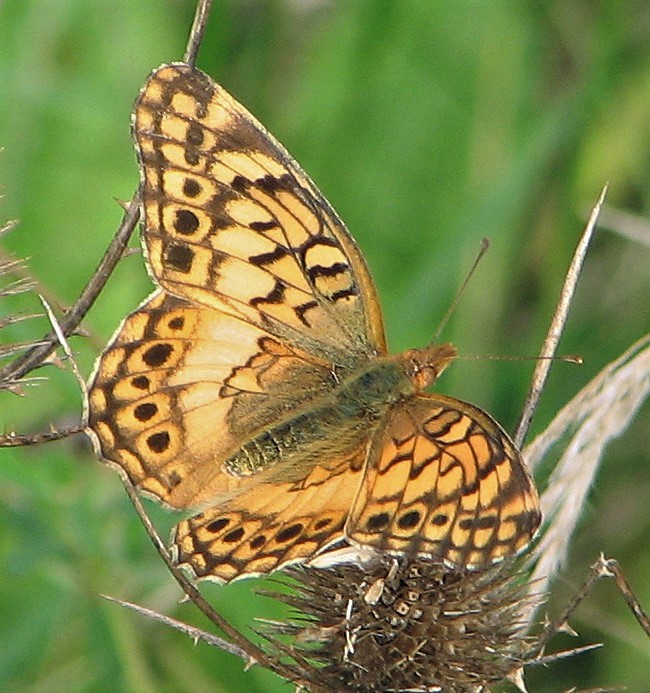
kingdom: Animalia
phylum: Arthropoda
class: Insecta
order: Lepidoptera
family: Nymphalidae
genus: Euptoieta
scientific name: Euptoieta hortensia
